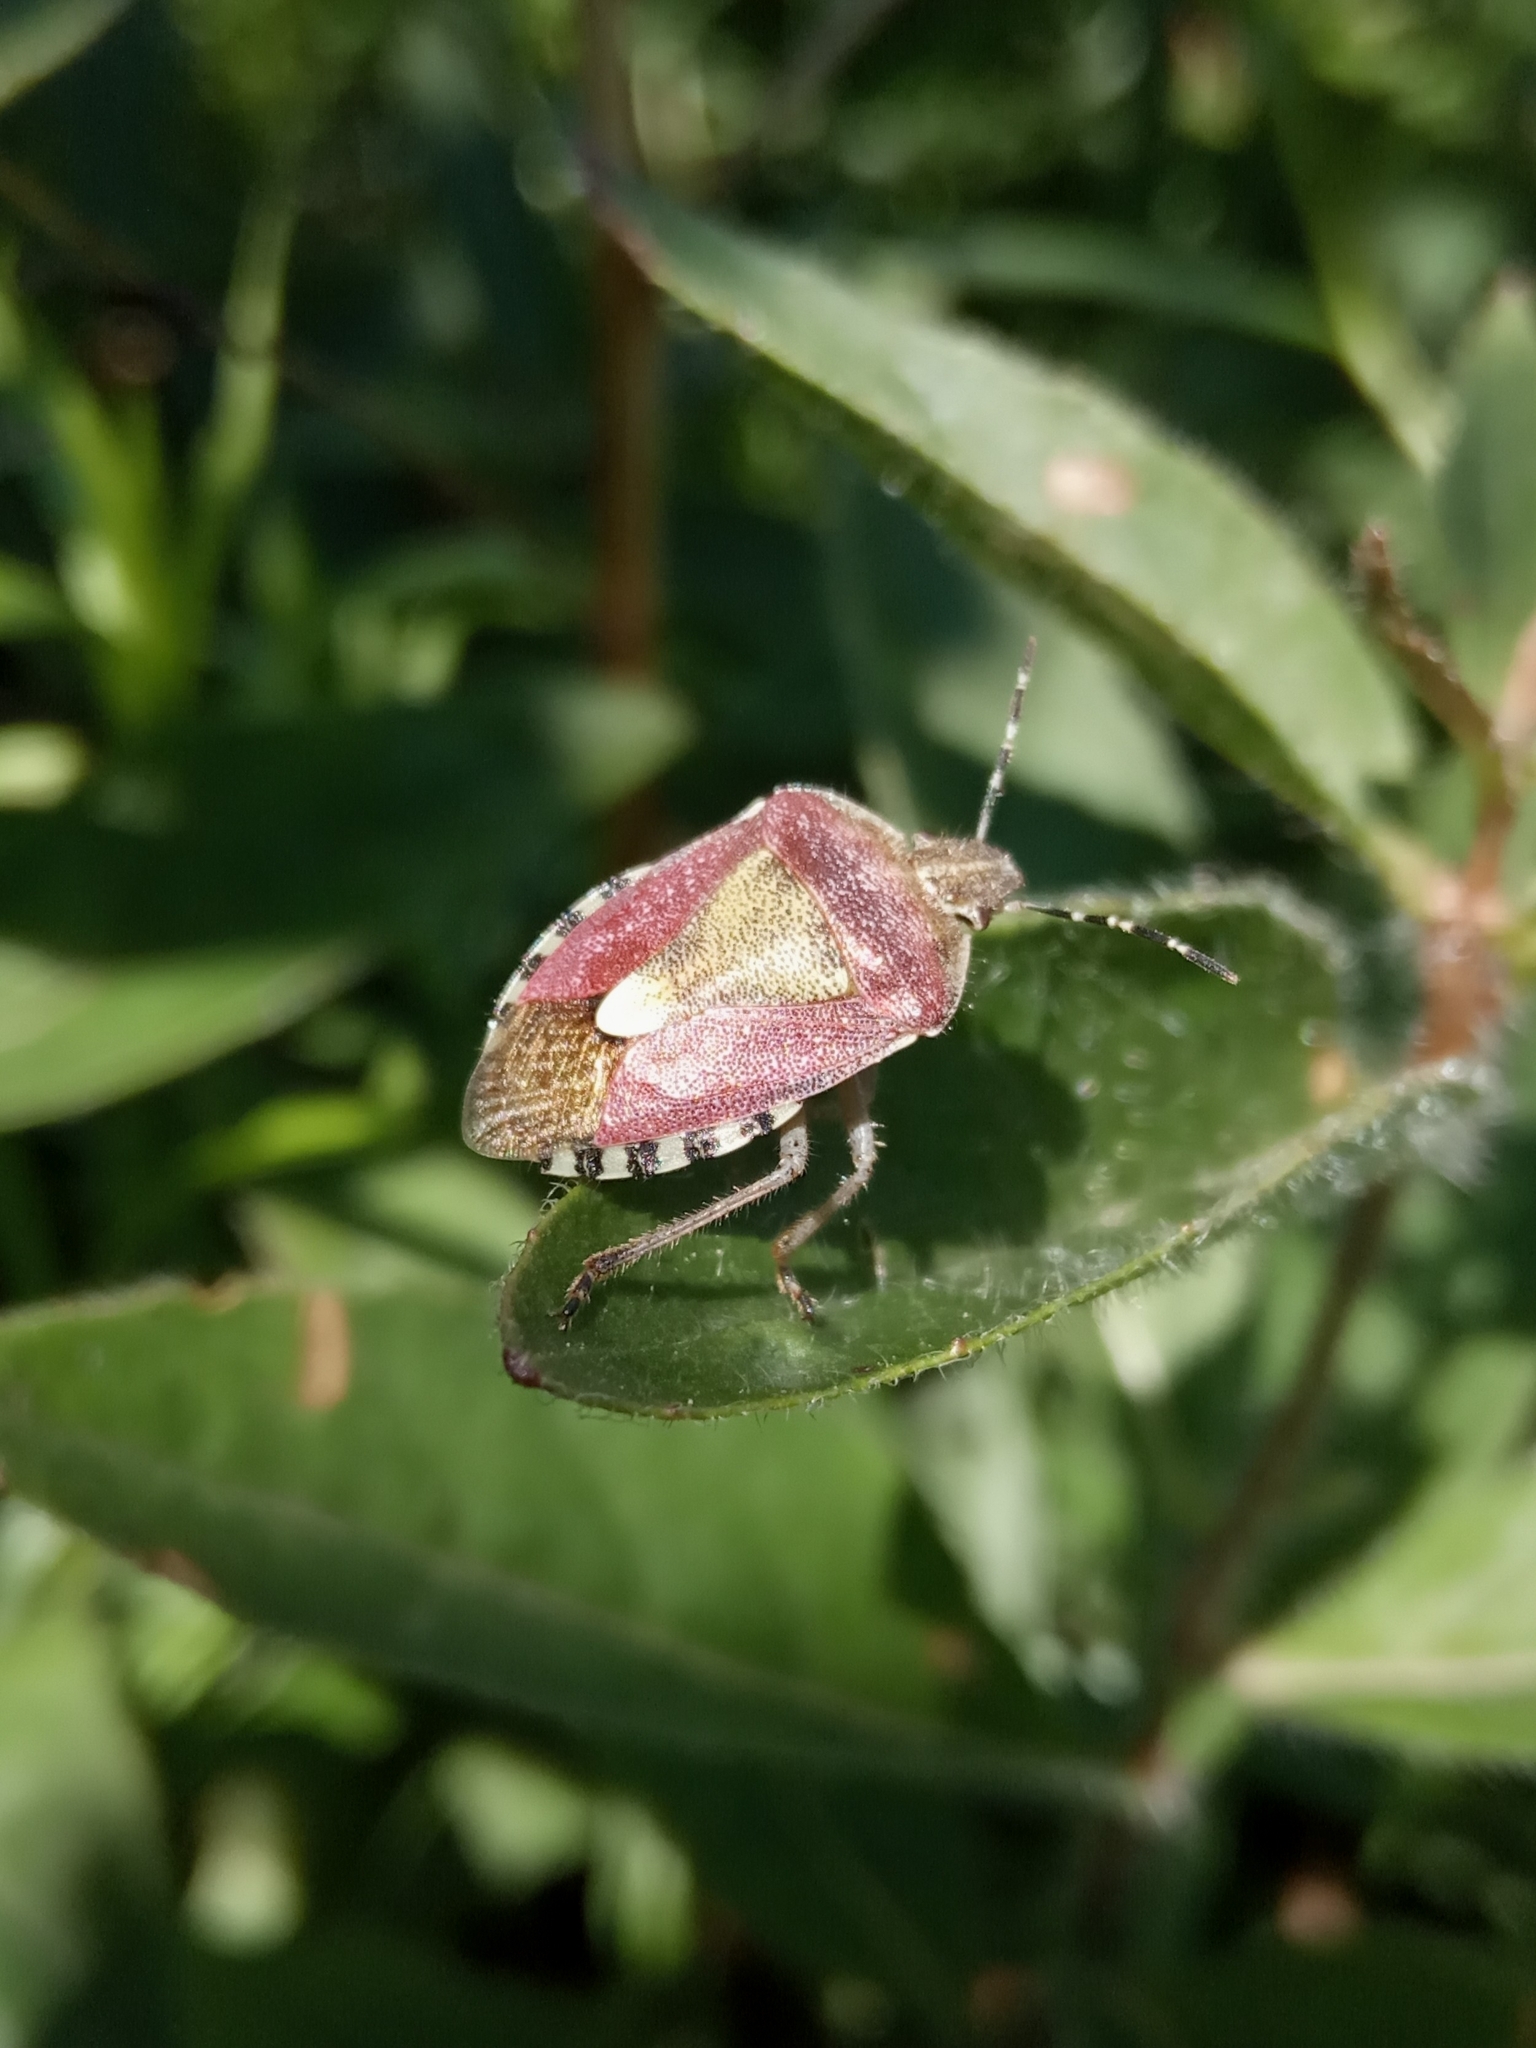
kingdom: Animalia
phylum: Arthropoda
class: Insecta
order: Hemiptera
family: Pentatomidae
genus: Dolycoris
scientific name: Dolycoris baccarum
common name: Sloe bug
